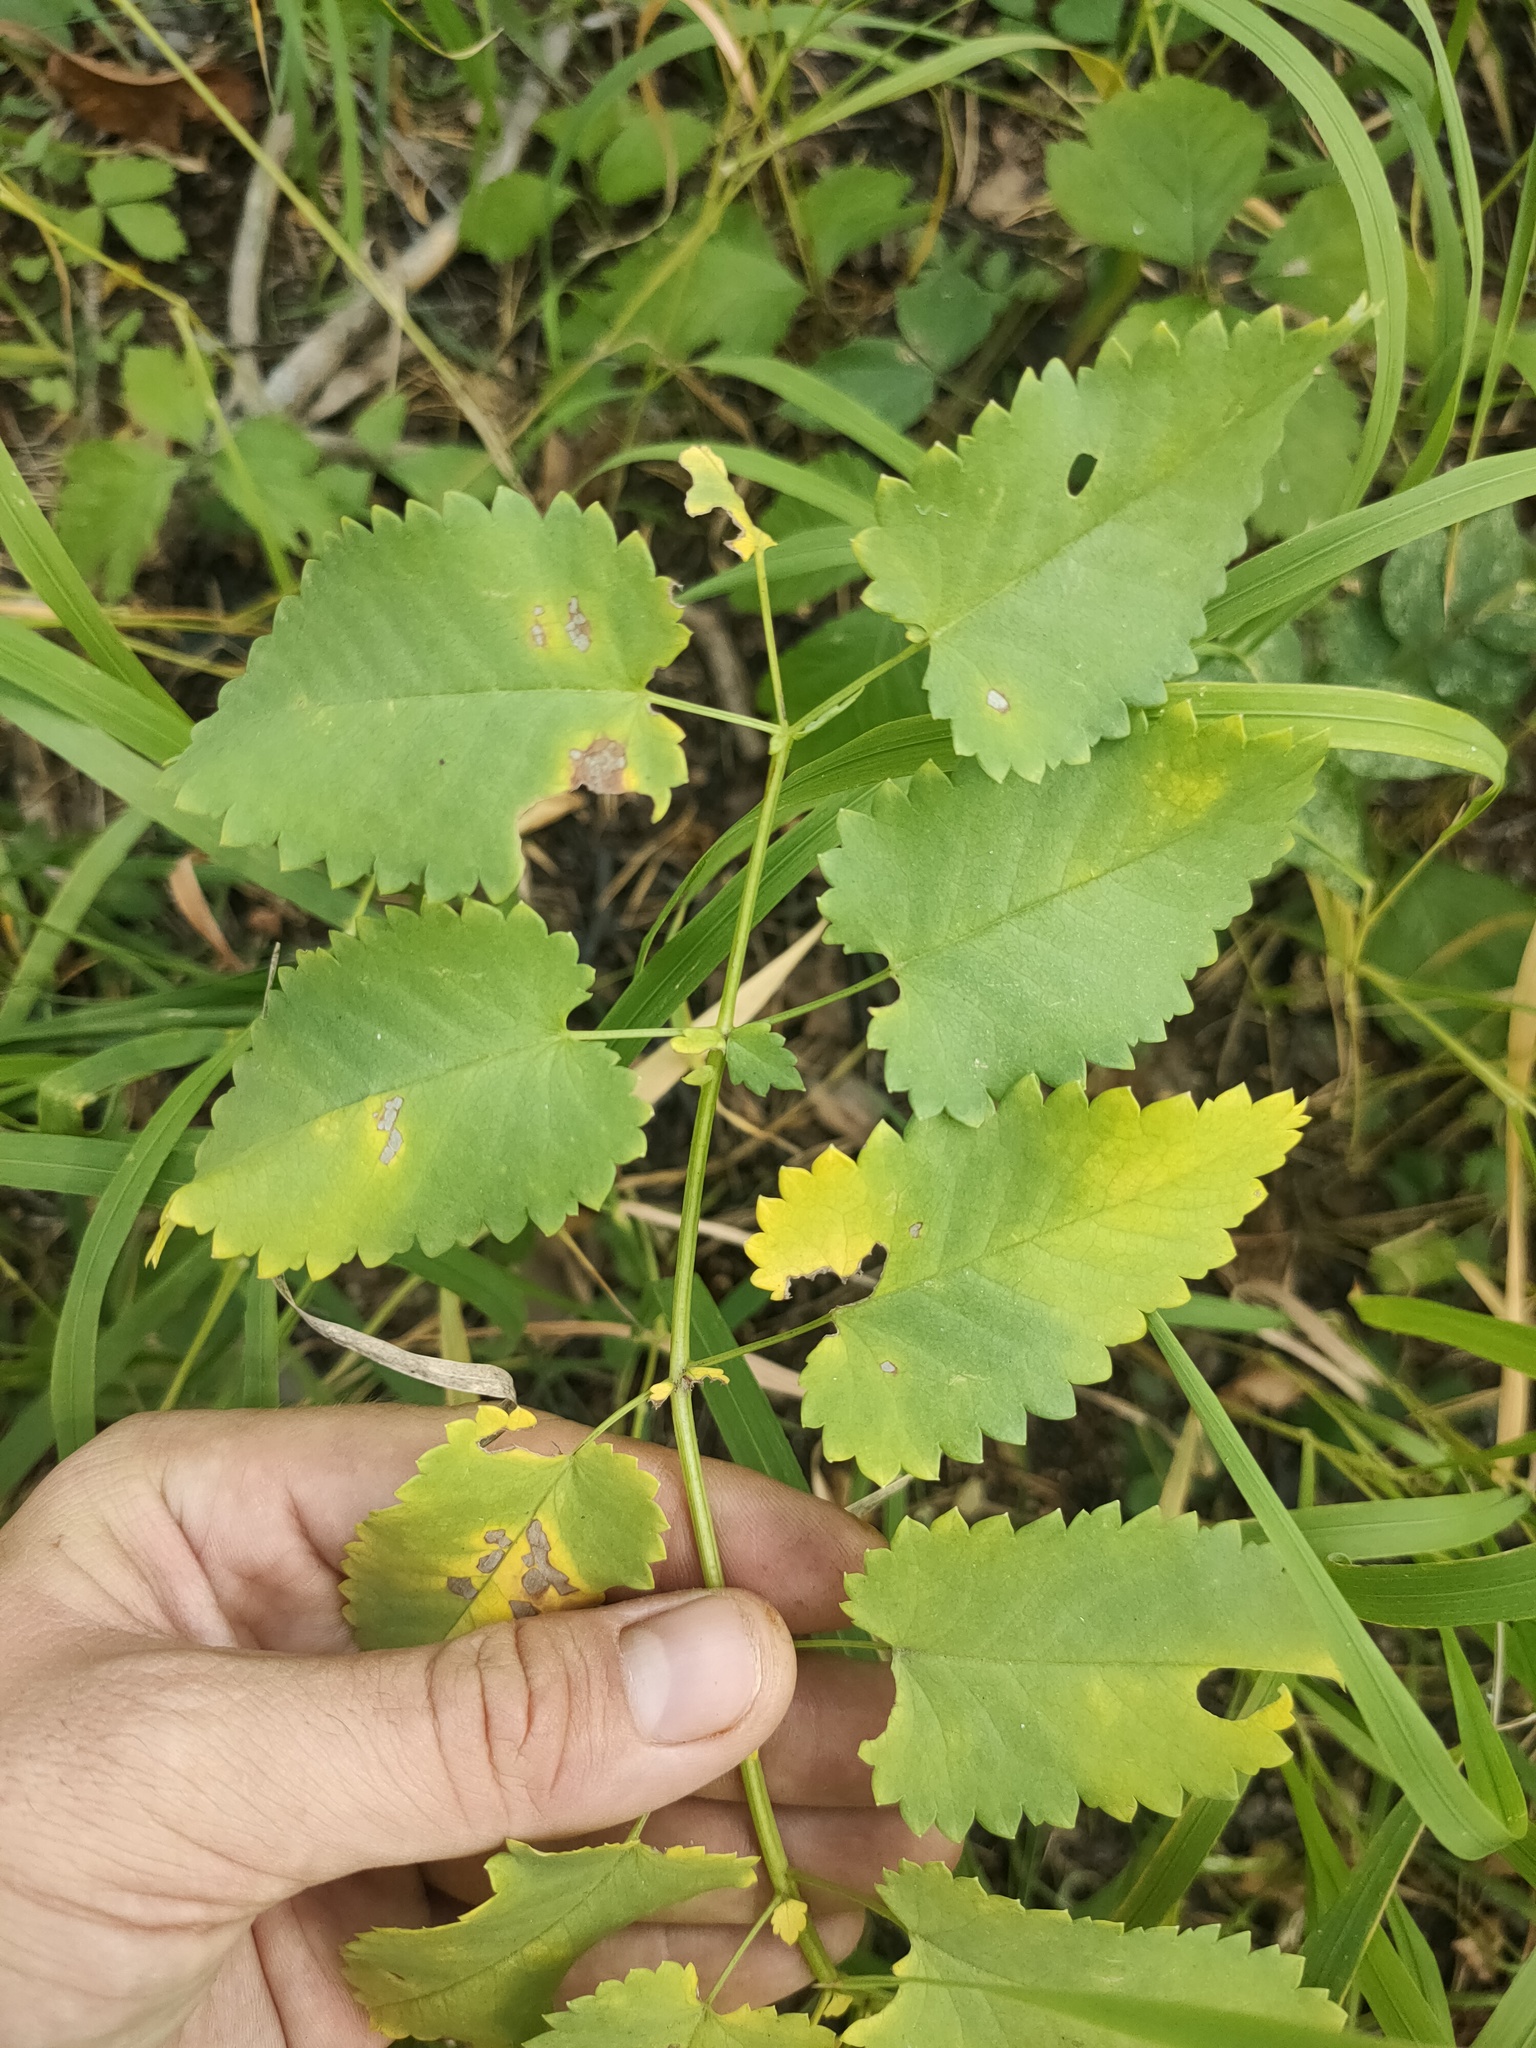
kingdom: Plantae
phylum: Tracheophyta
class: Magnoliopsida
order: Rosales
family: Rosaceae
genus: Sanguisorba
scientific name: Sanguisorba officinalis
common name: Great burnet
